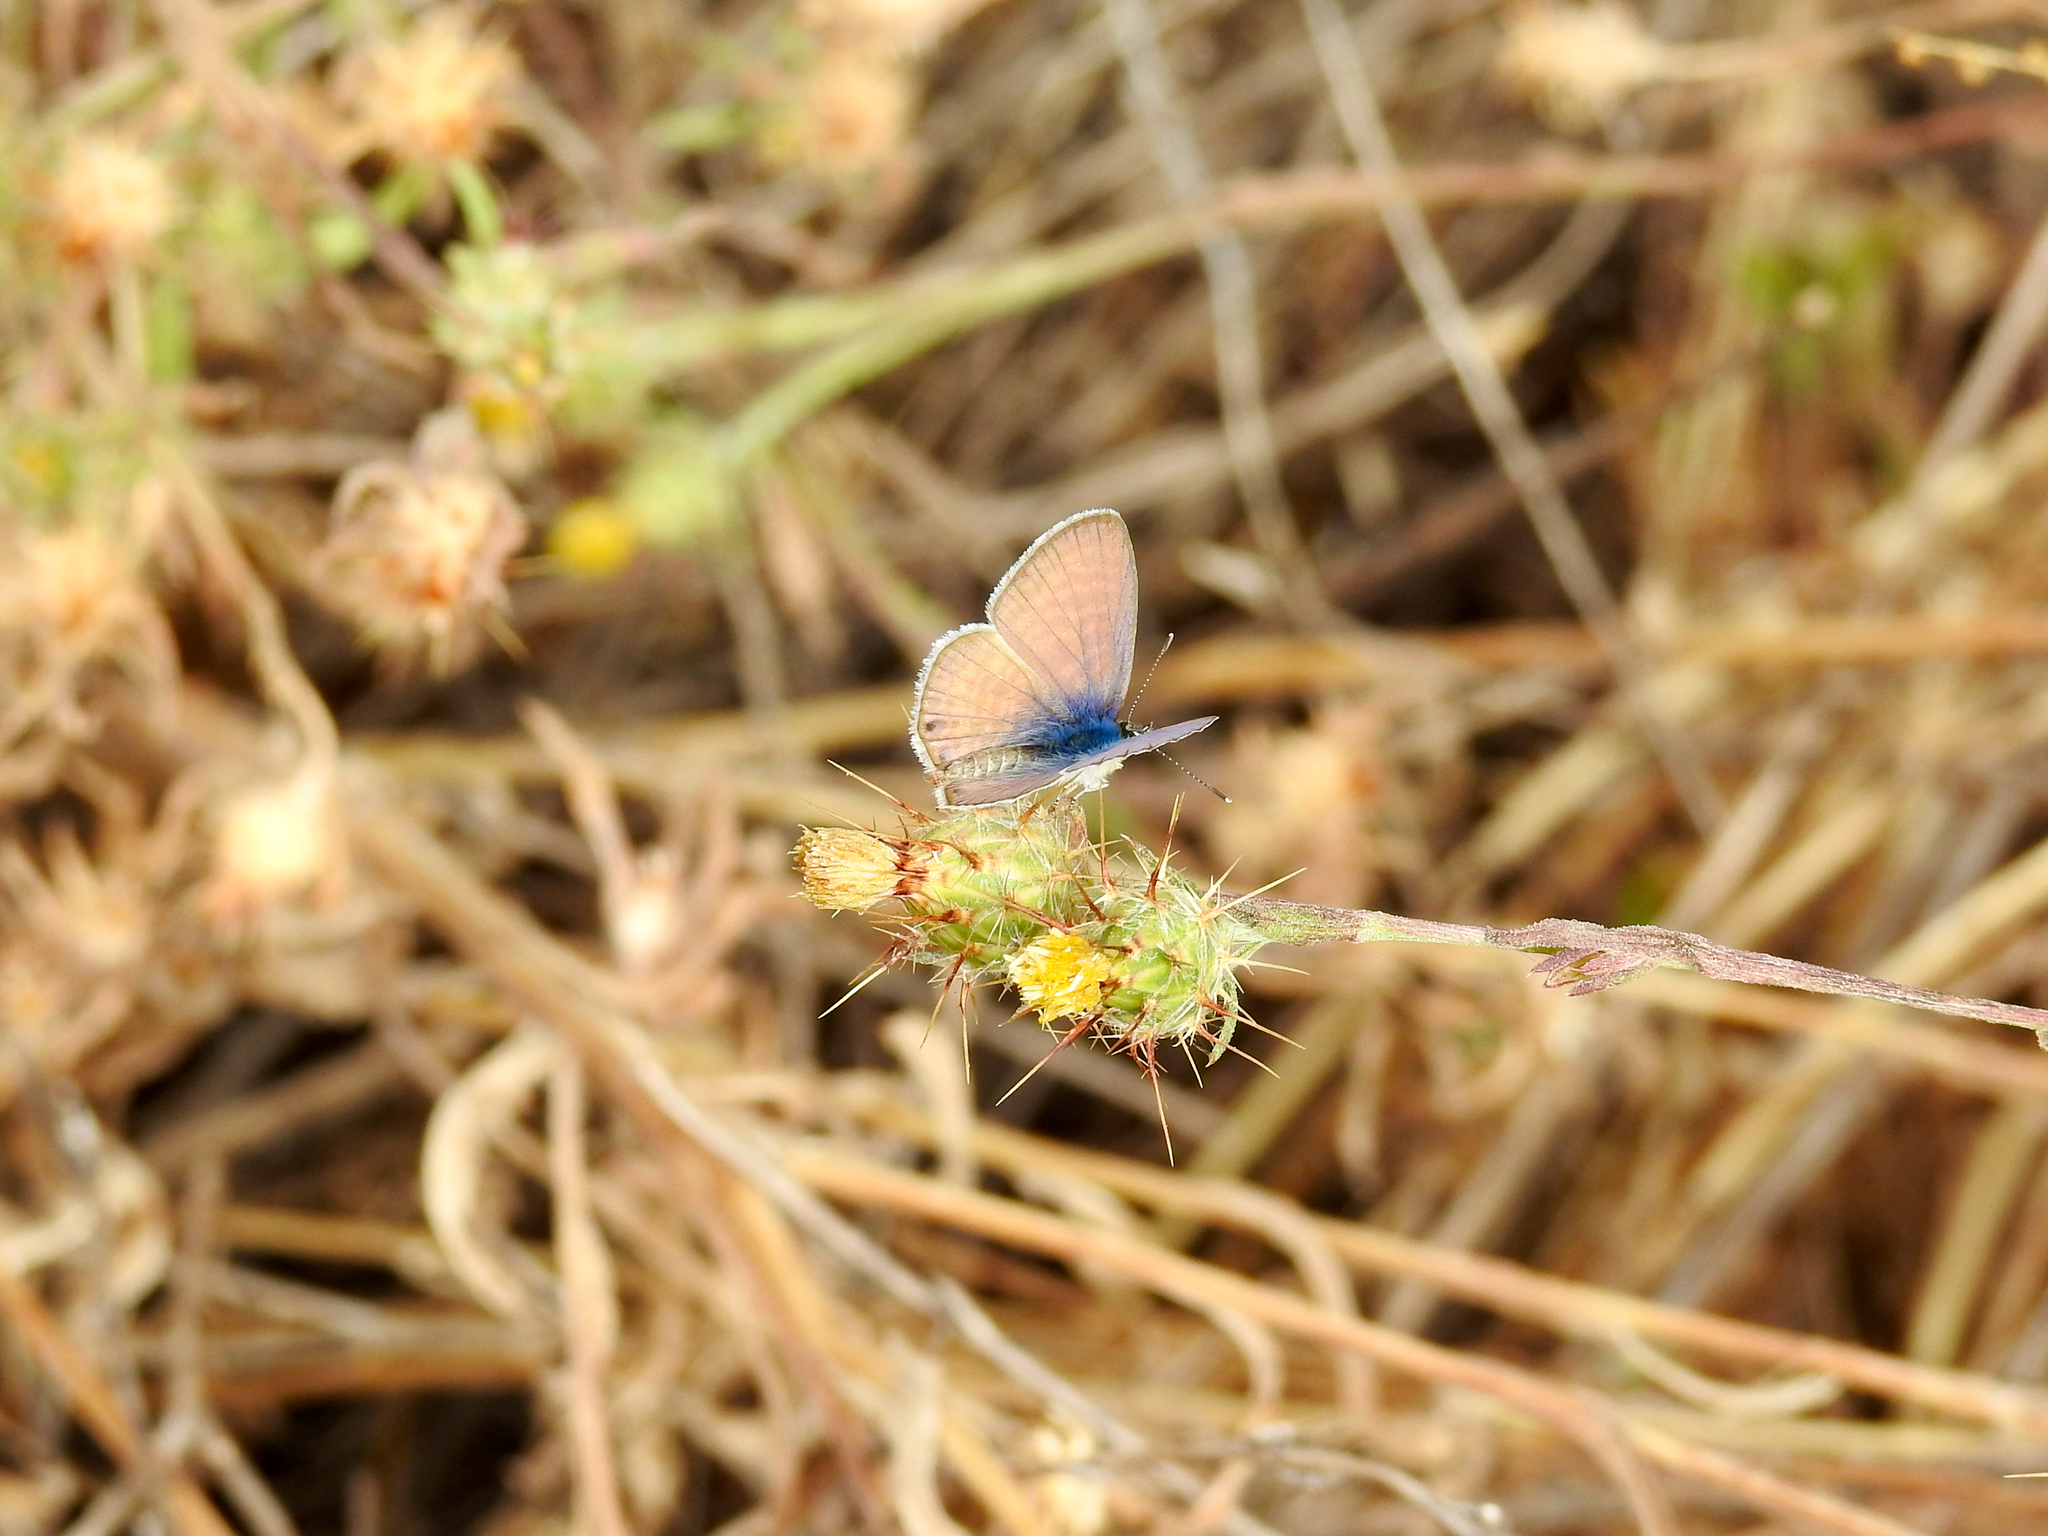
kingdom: Animalia
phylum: Arthropoda
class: Insecta
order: Lepidoptera
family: Lycaenidae
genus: Leptotes
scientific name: Leptotes marina
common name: Marine blue
